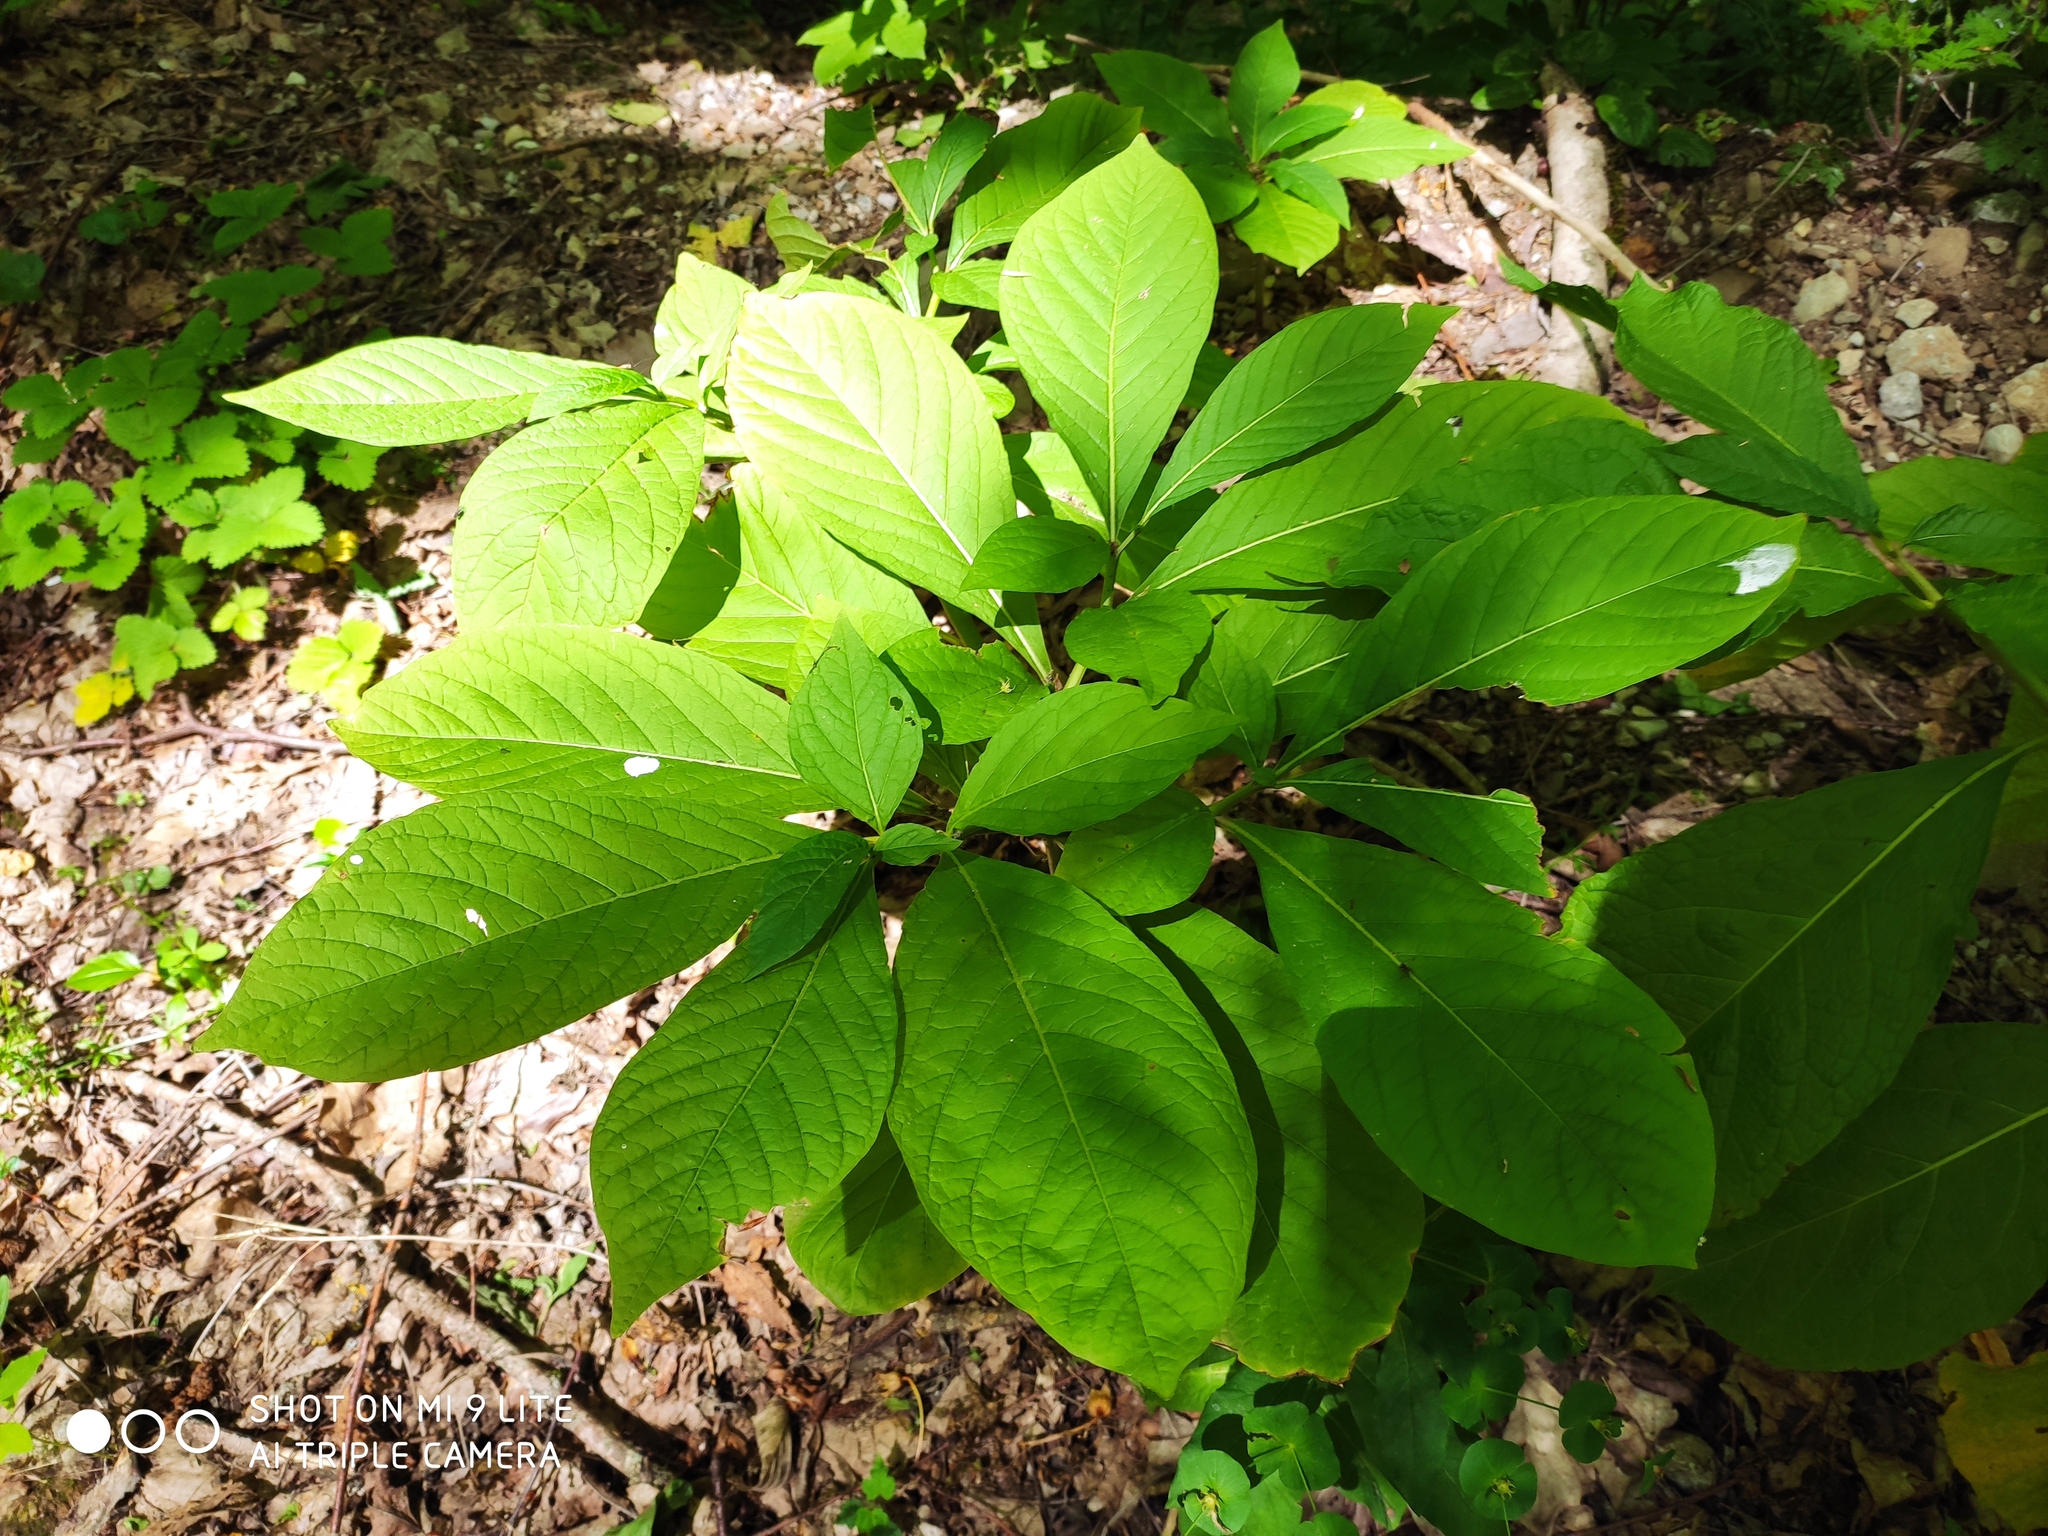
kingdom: Plantae
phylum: Tracheophyta
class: Magnoliopsida
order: Solanales
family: Solanaceae
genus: Scopolia
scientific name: Scopolia carniolica
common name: Scopolia
